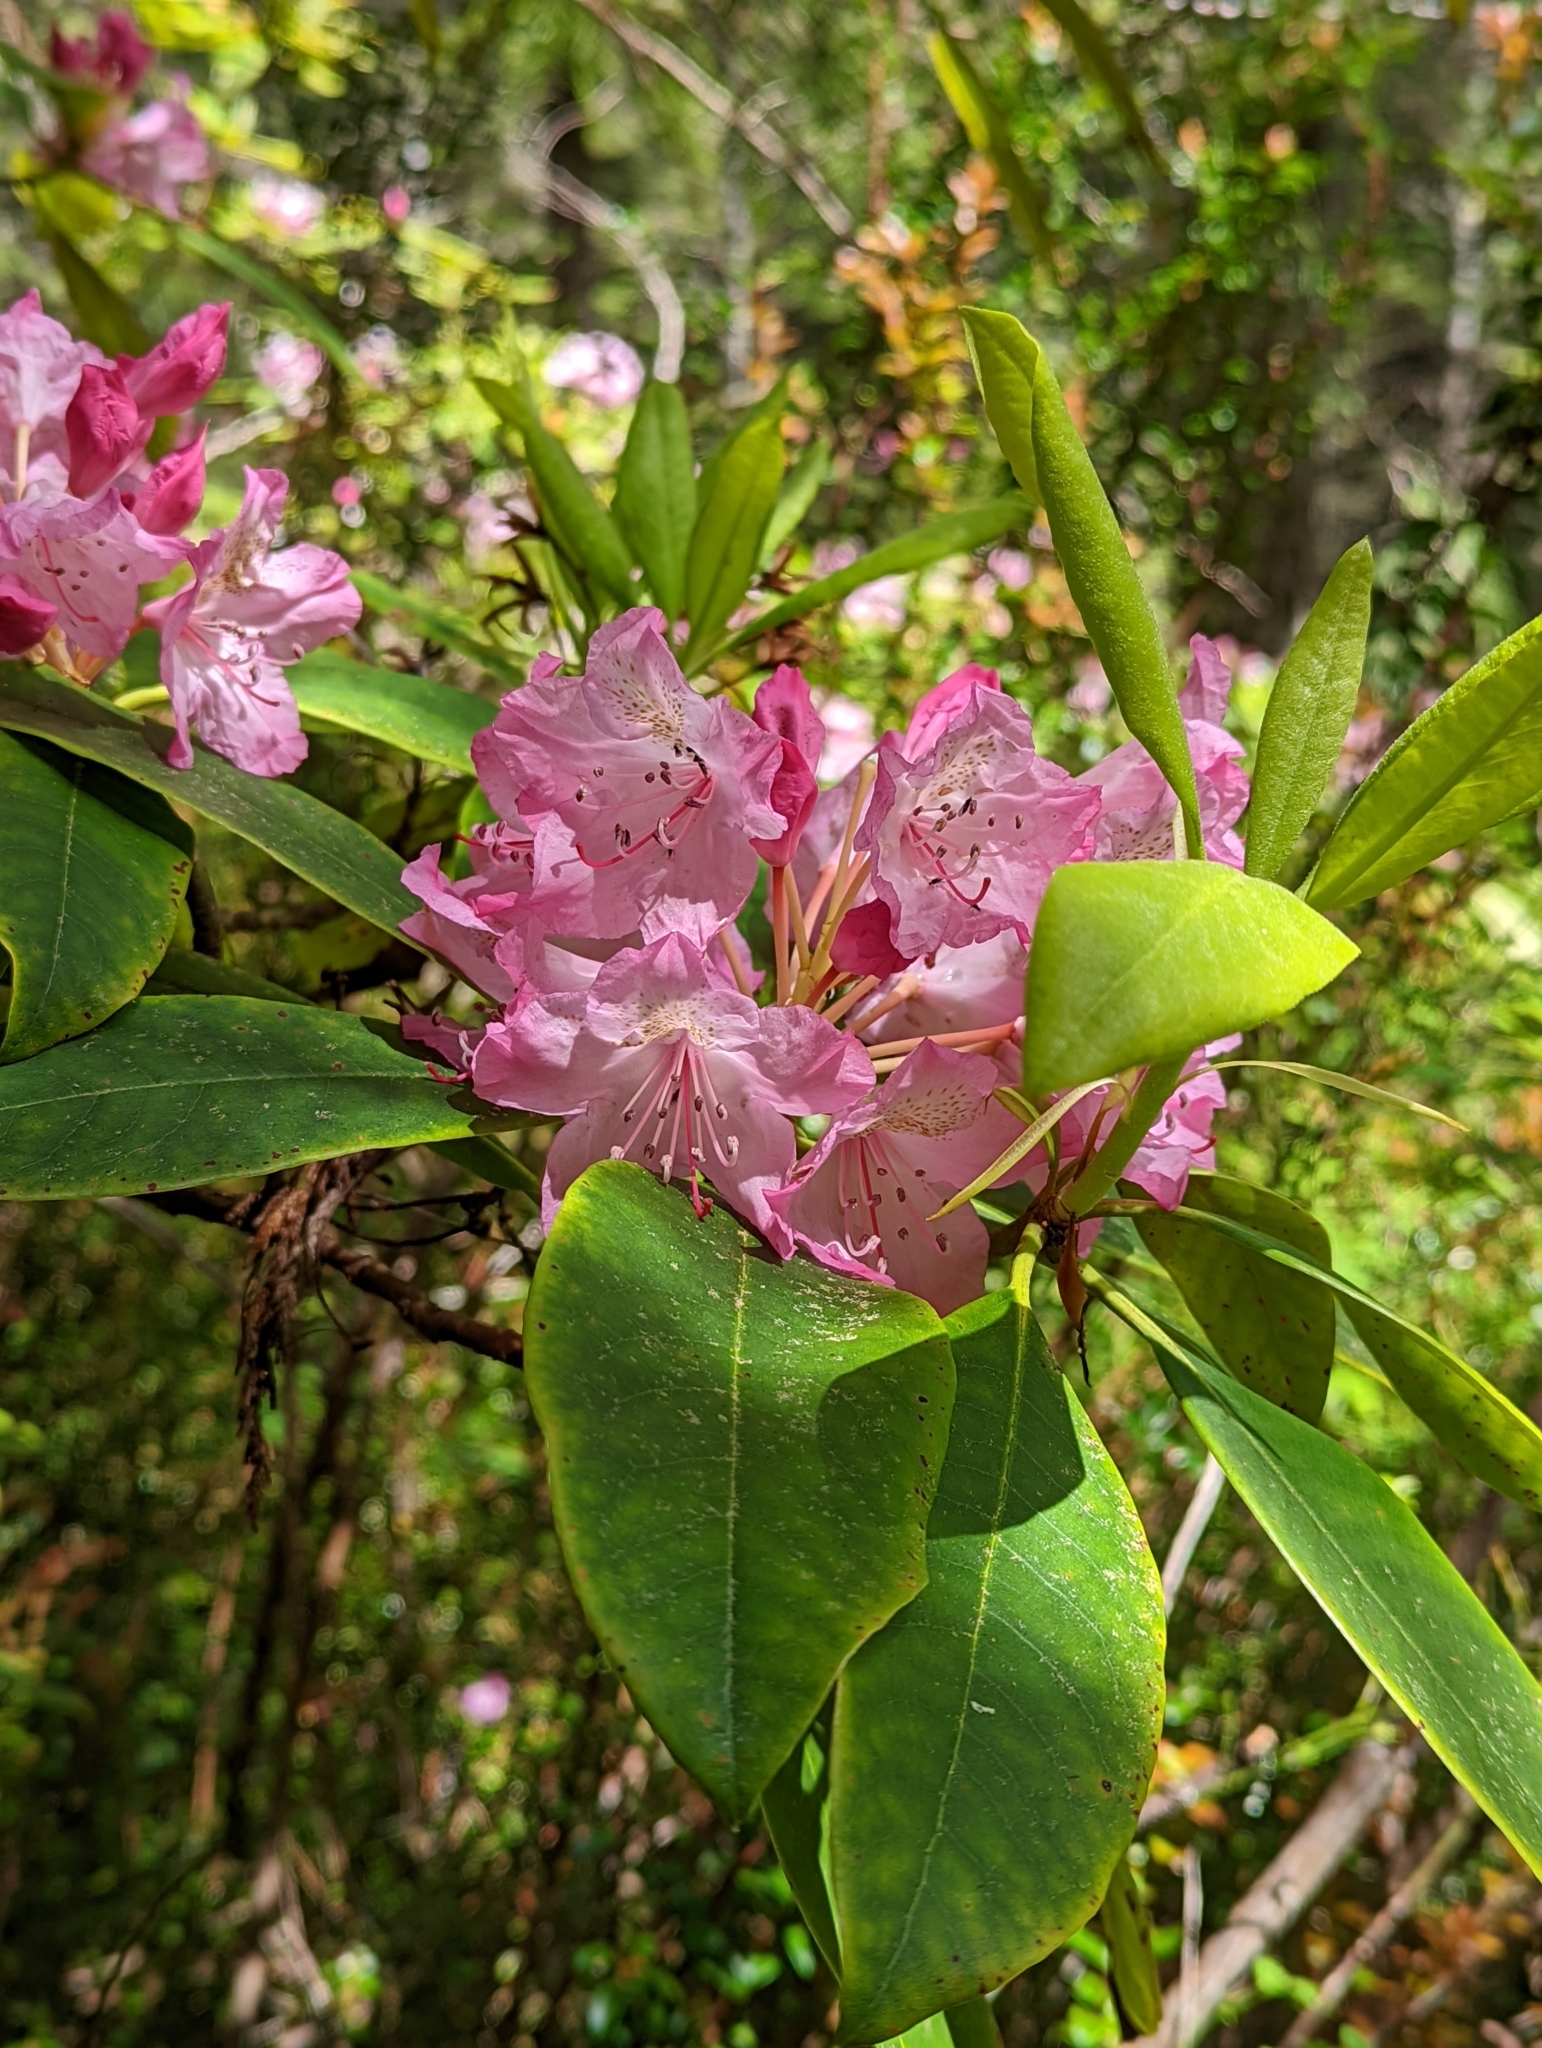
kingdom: Plantae
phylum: Tracheophyta
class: Magnoliopsida
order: Ericales
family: Ericaceae
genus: Rhododendron
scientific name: Rhododendron macrophyllum
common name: California rose bay
